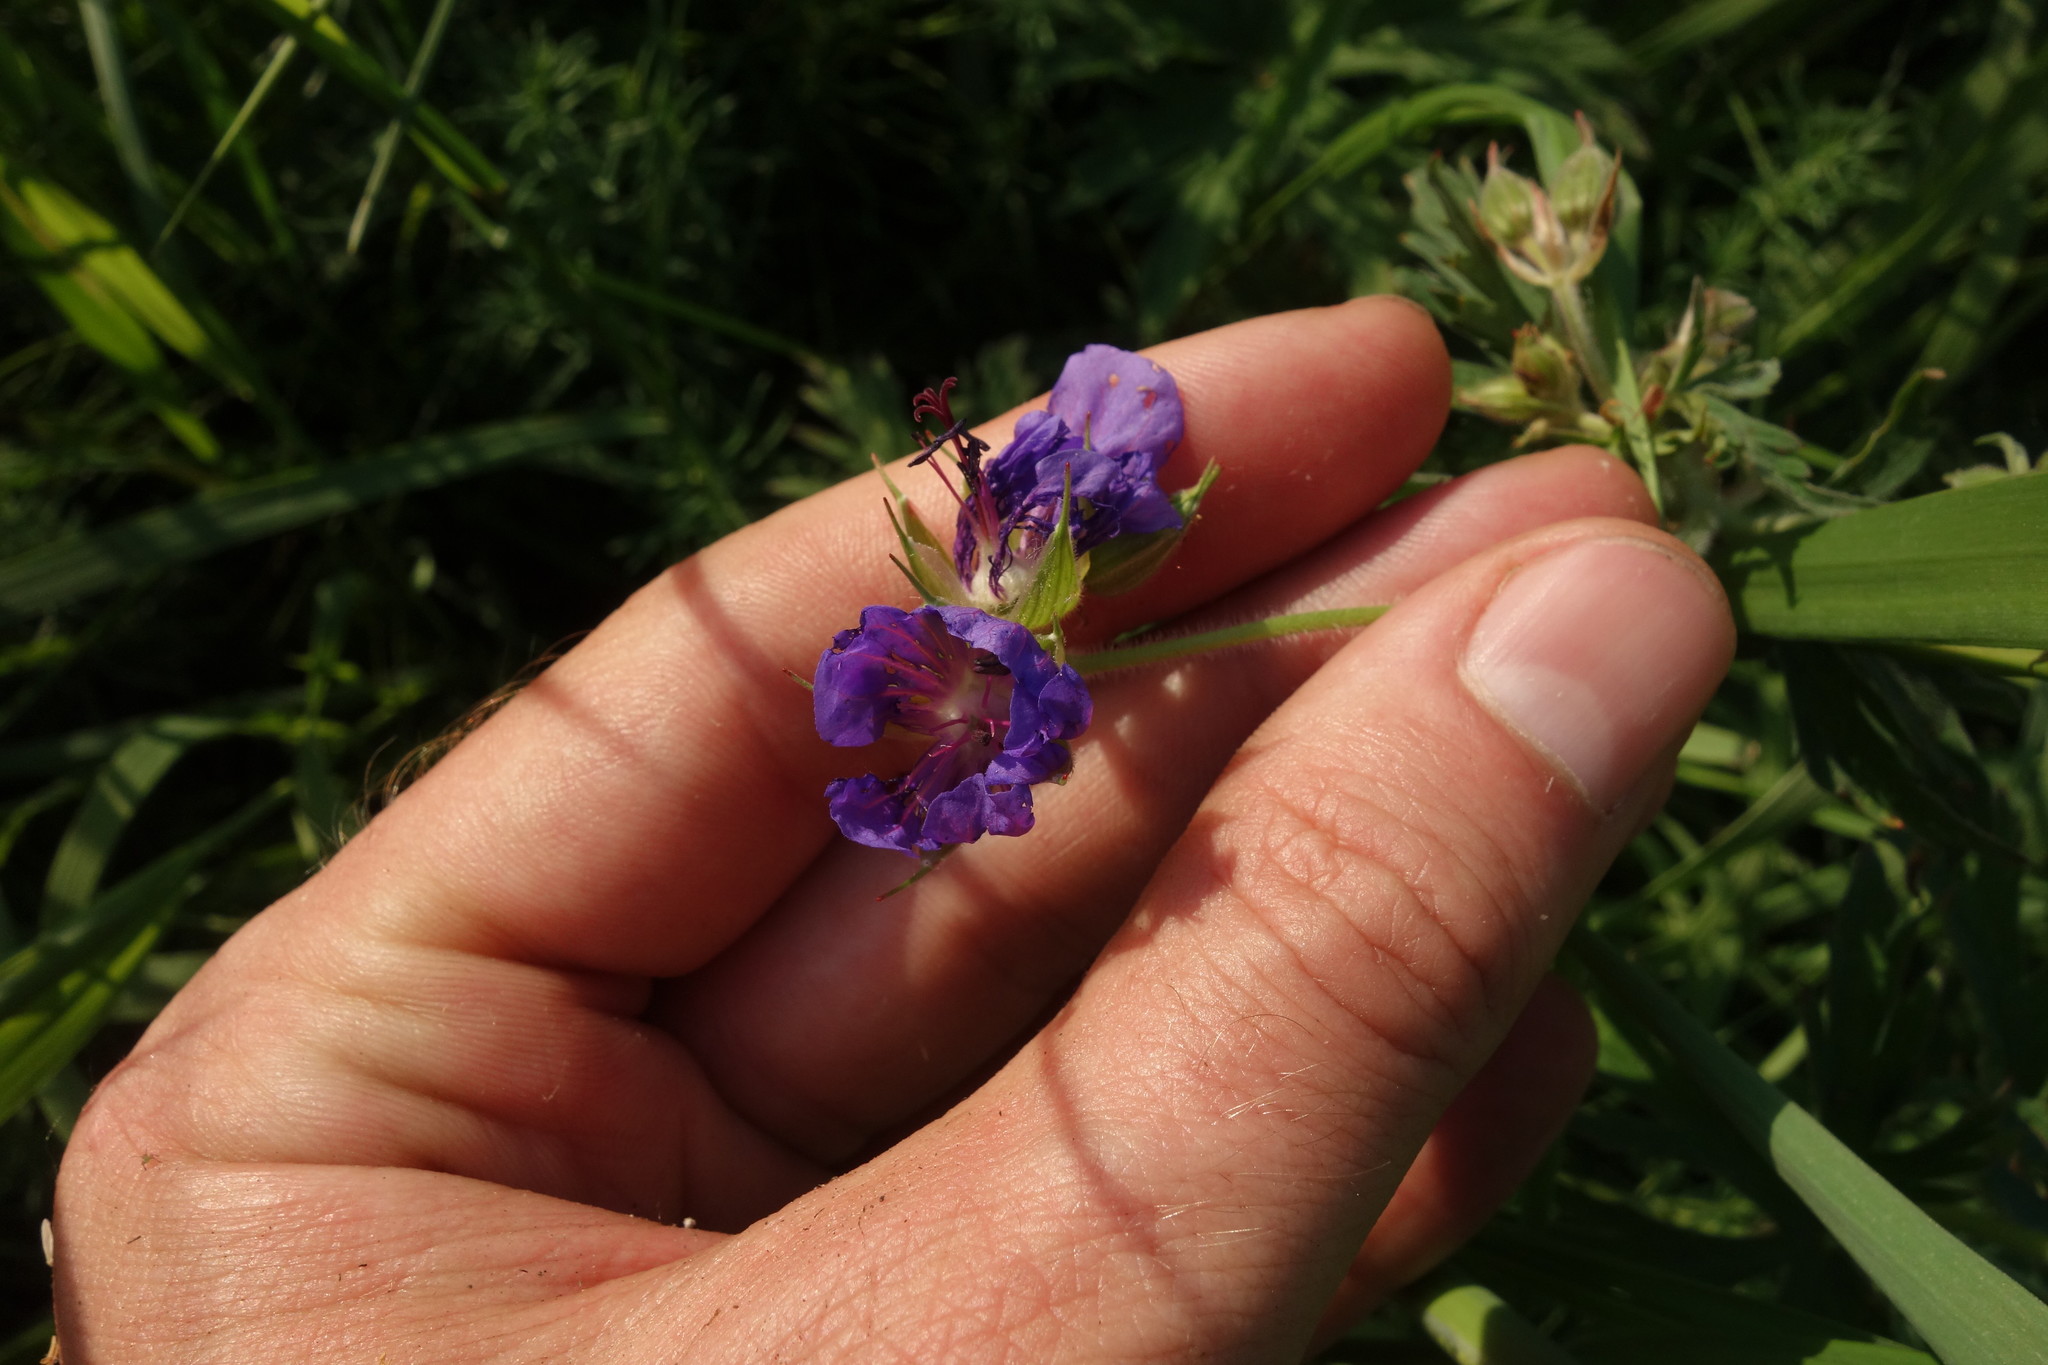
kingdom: Plantae
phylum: Tracheophyta
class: Magnoliopsida
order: Geraniales
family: Geraniaceae
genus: Geranium
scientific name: Geranium pratense
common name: Meadow crane's-bill
